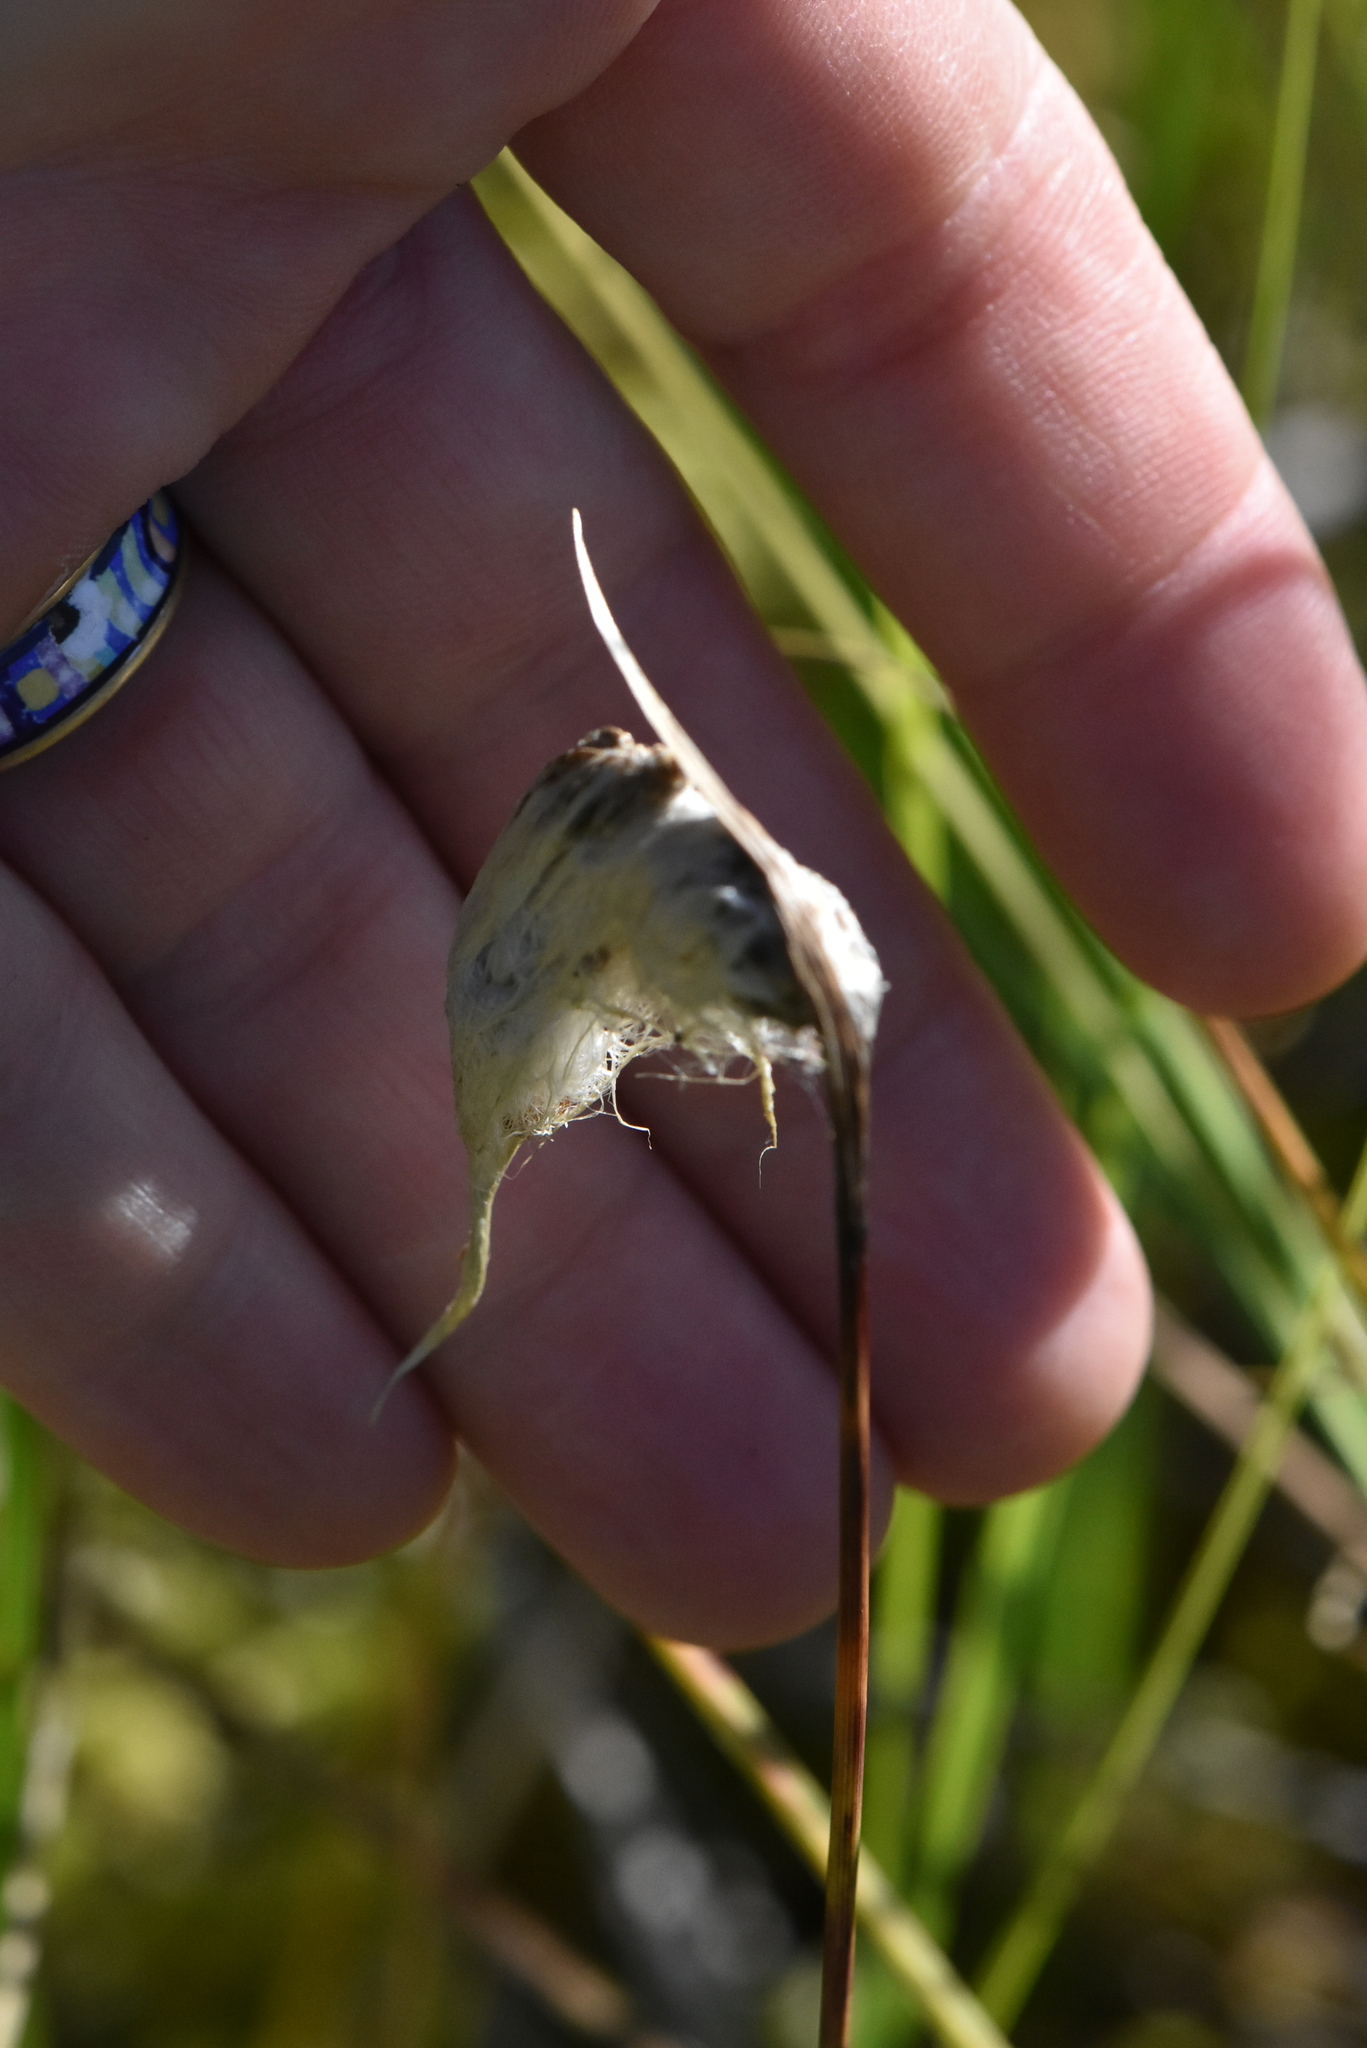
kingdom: Plantae
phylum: Tracheophyta
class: Liliopsida
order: Poales
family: Cyperaceae
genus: Eriophorum
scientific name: Eriophorum angustifolium
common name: Common cottongrass
